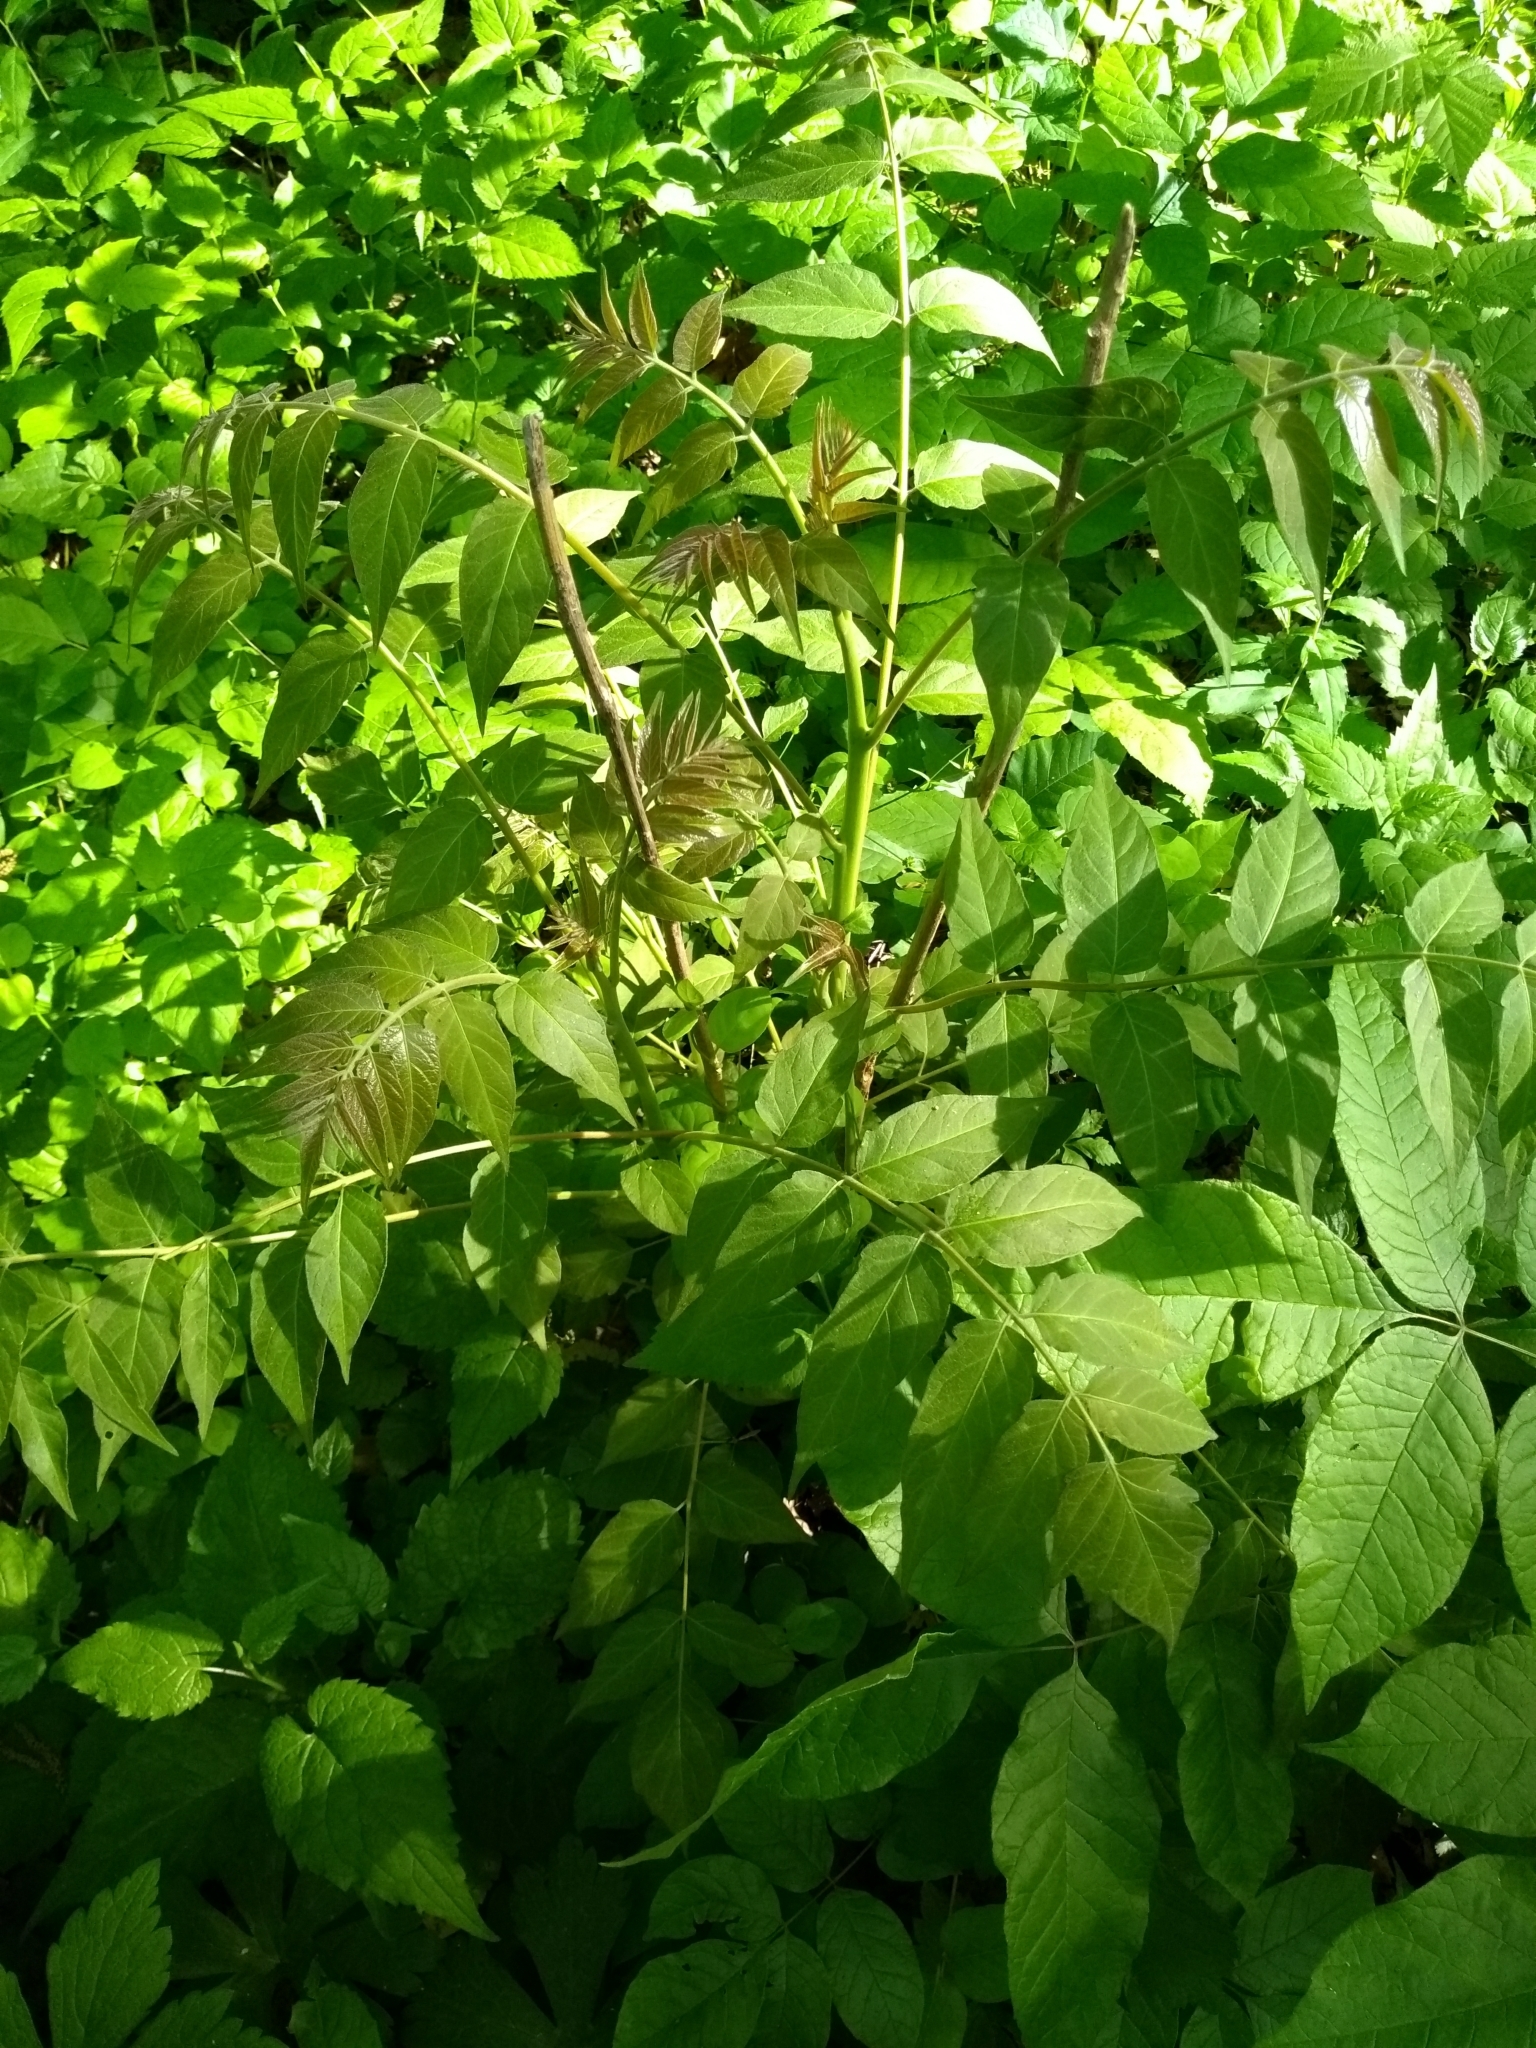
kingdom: Plantae
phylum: Tracheophyta
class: Magnoliopsida
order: Sapindales
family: Simaroubaceae
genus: Ailanthus
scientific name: Ailanthus altissima
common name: Tree-of-heaven
